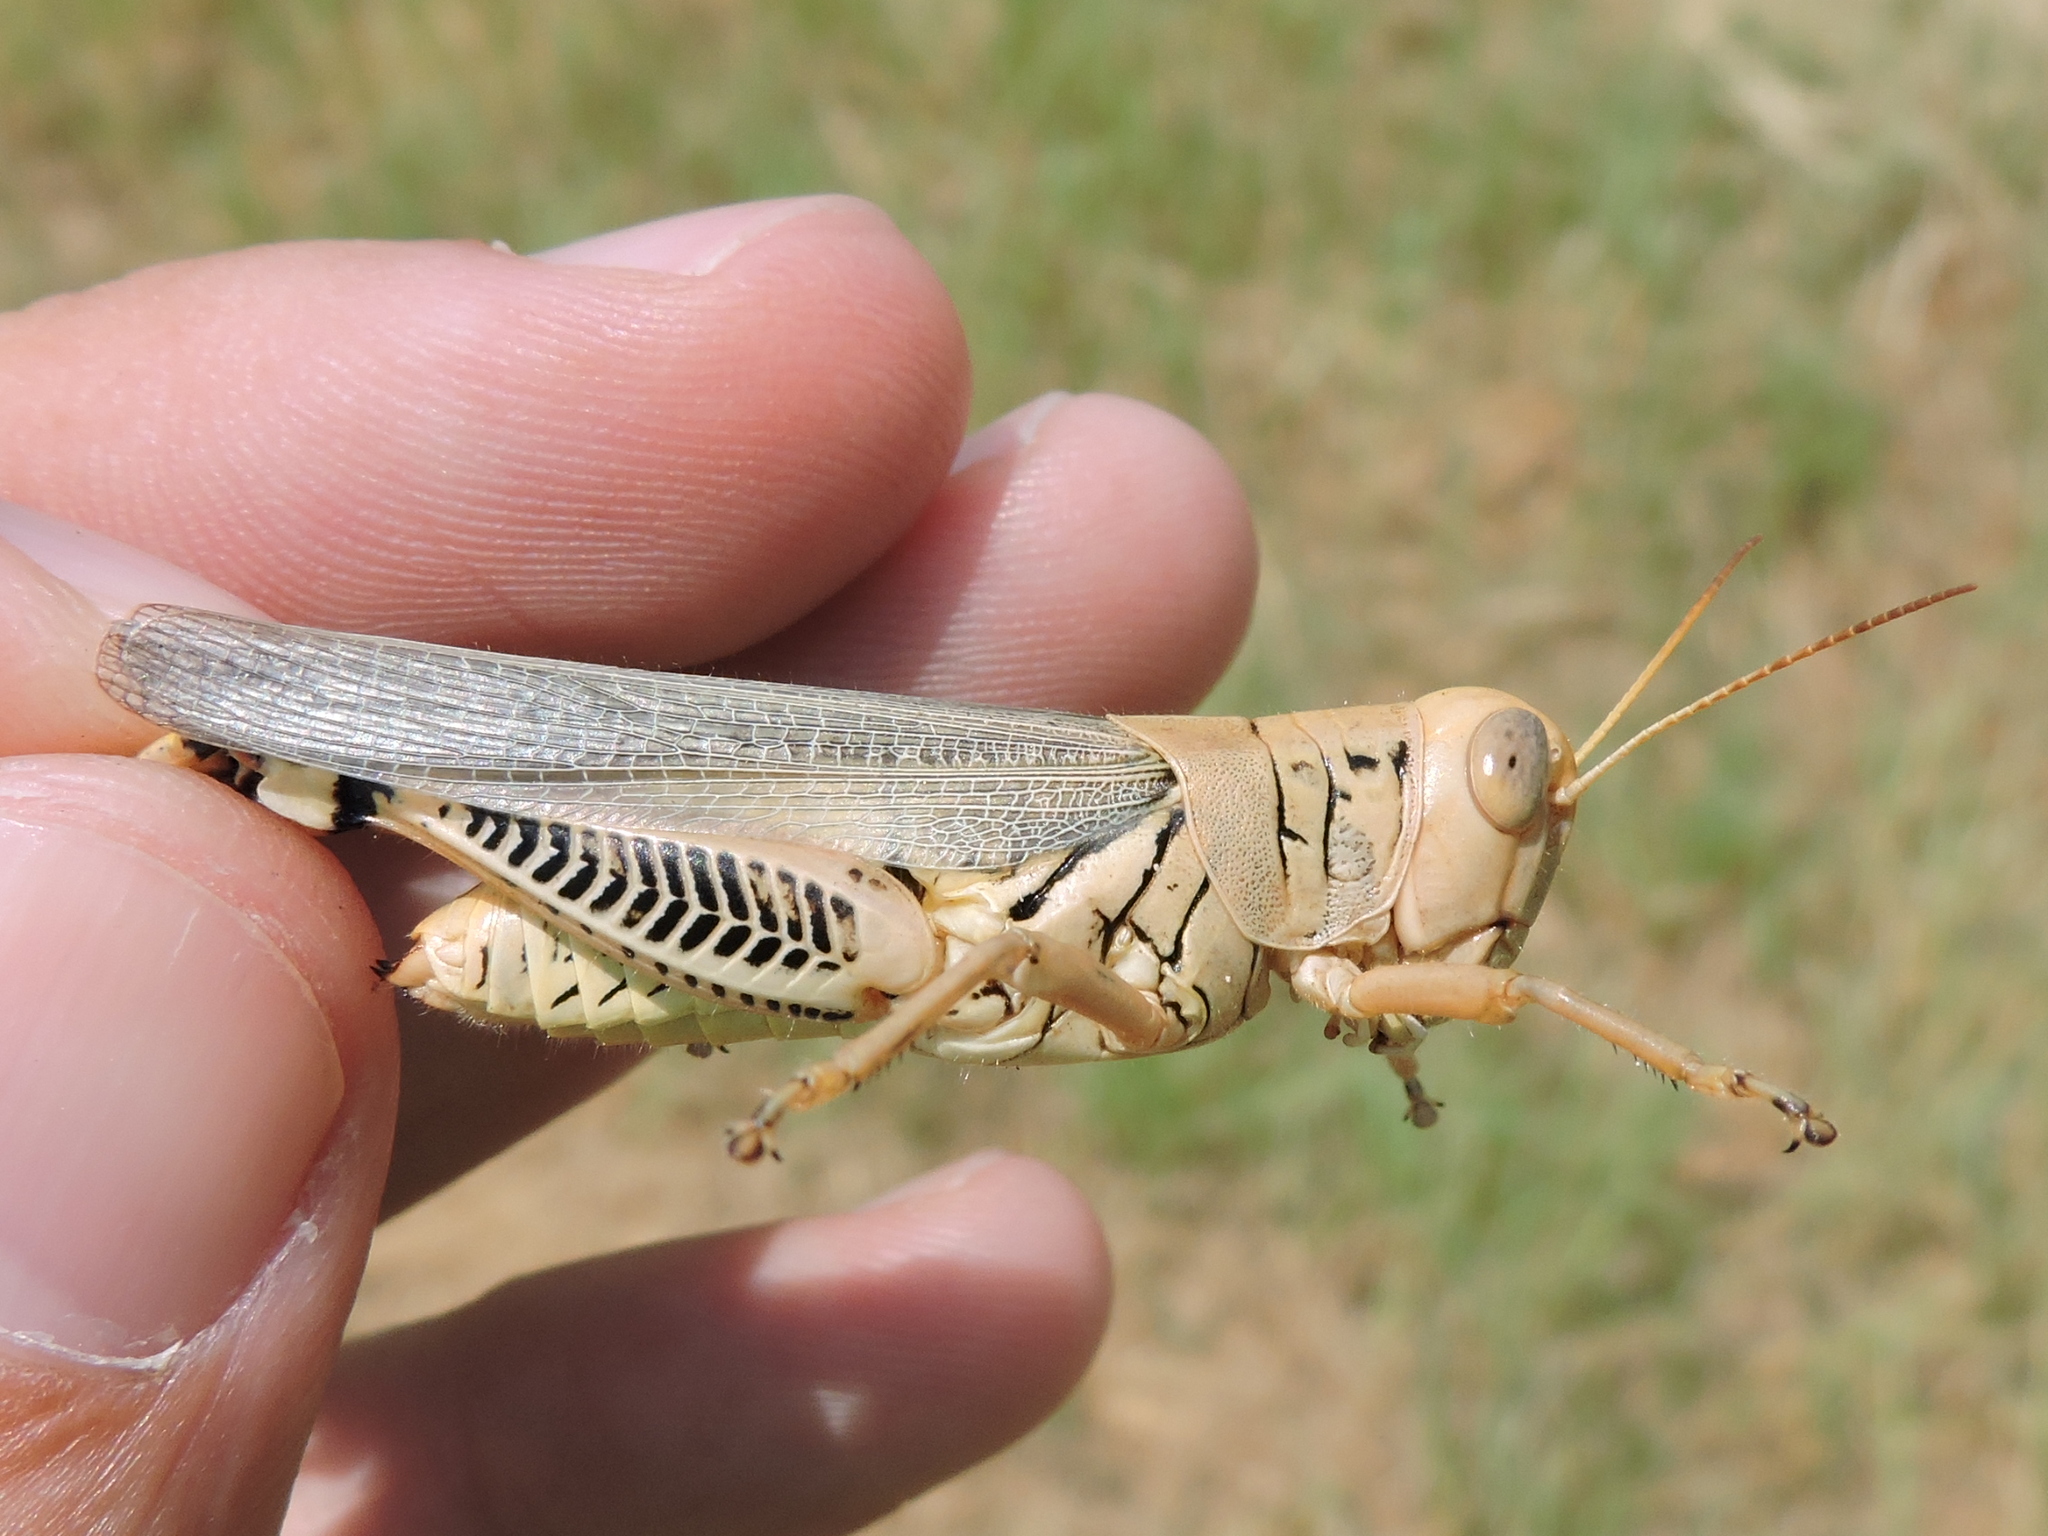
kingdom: Animalia
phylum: Arthropoda
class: Insecta
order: Orthoptera
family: Acrididae
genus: Melanoplus
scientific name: Melanoplus differentialis
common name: Differential grasshopper
